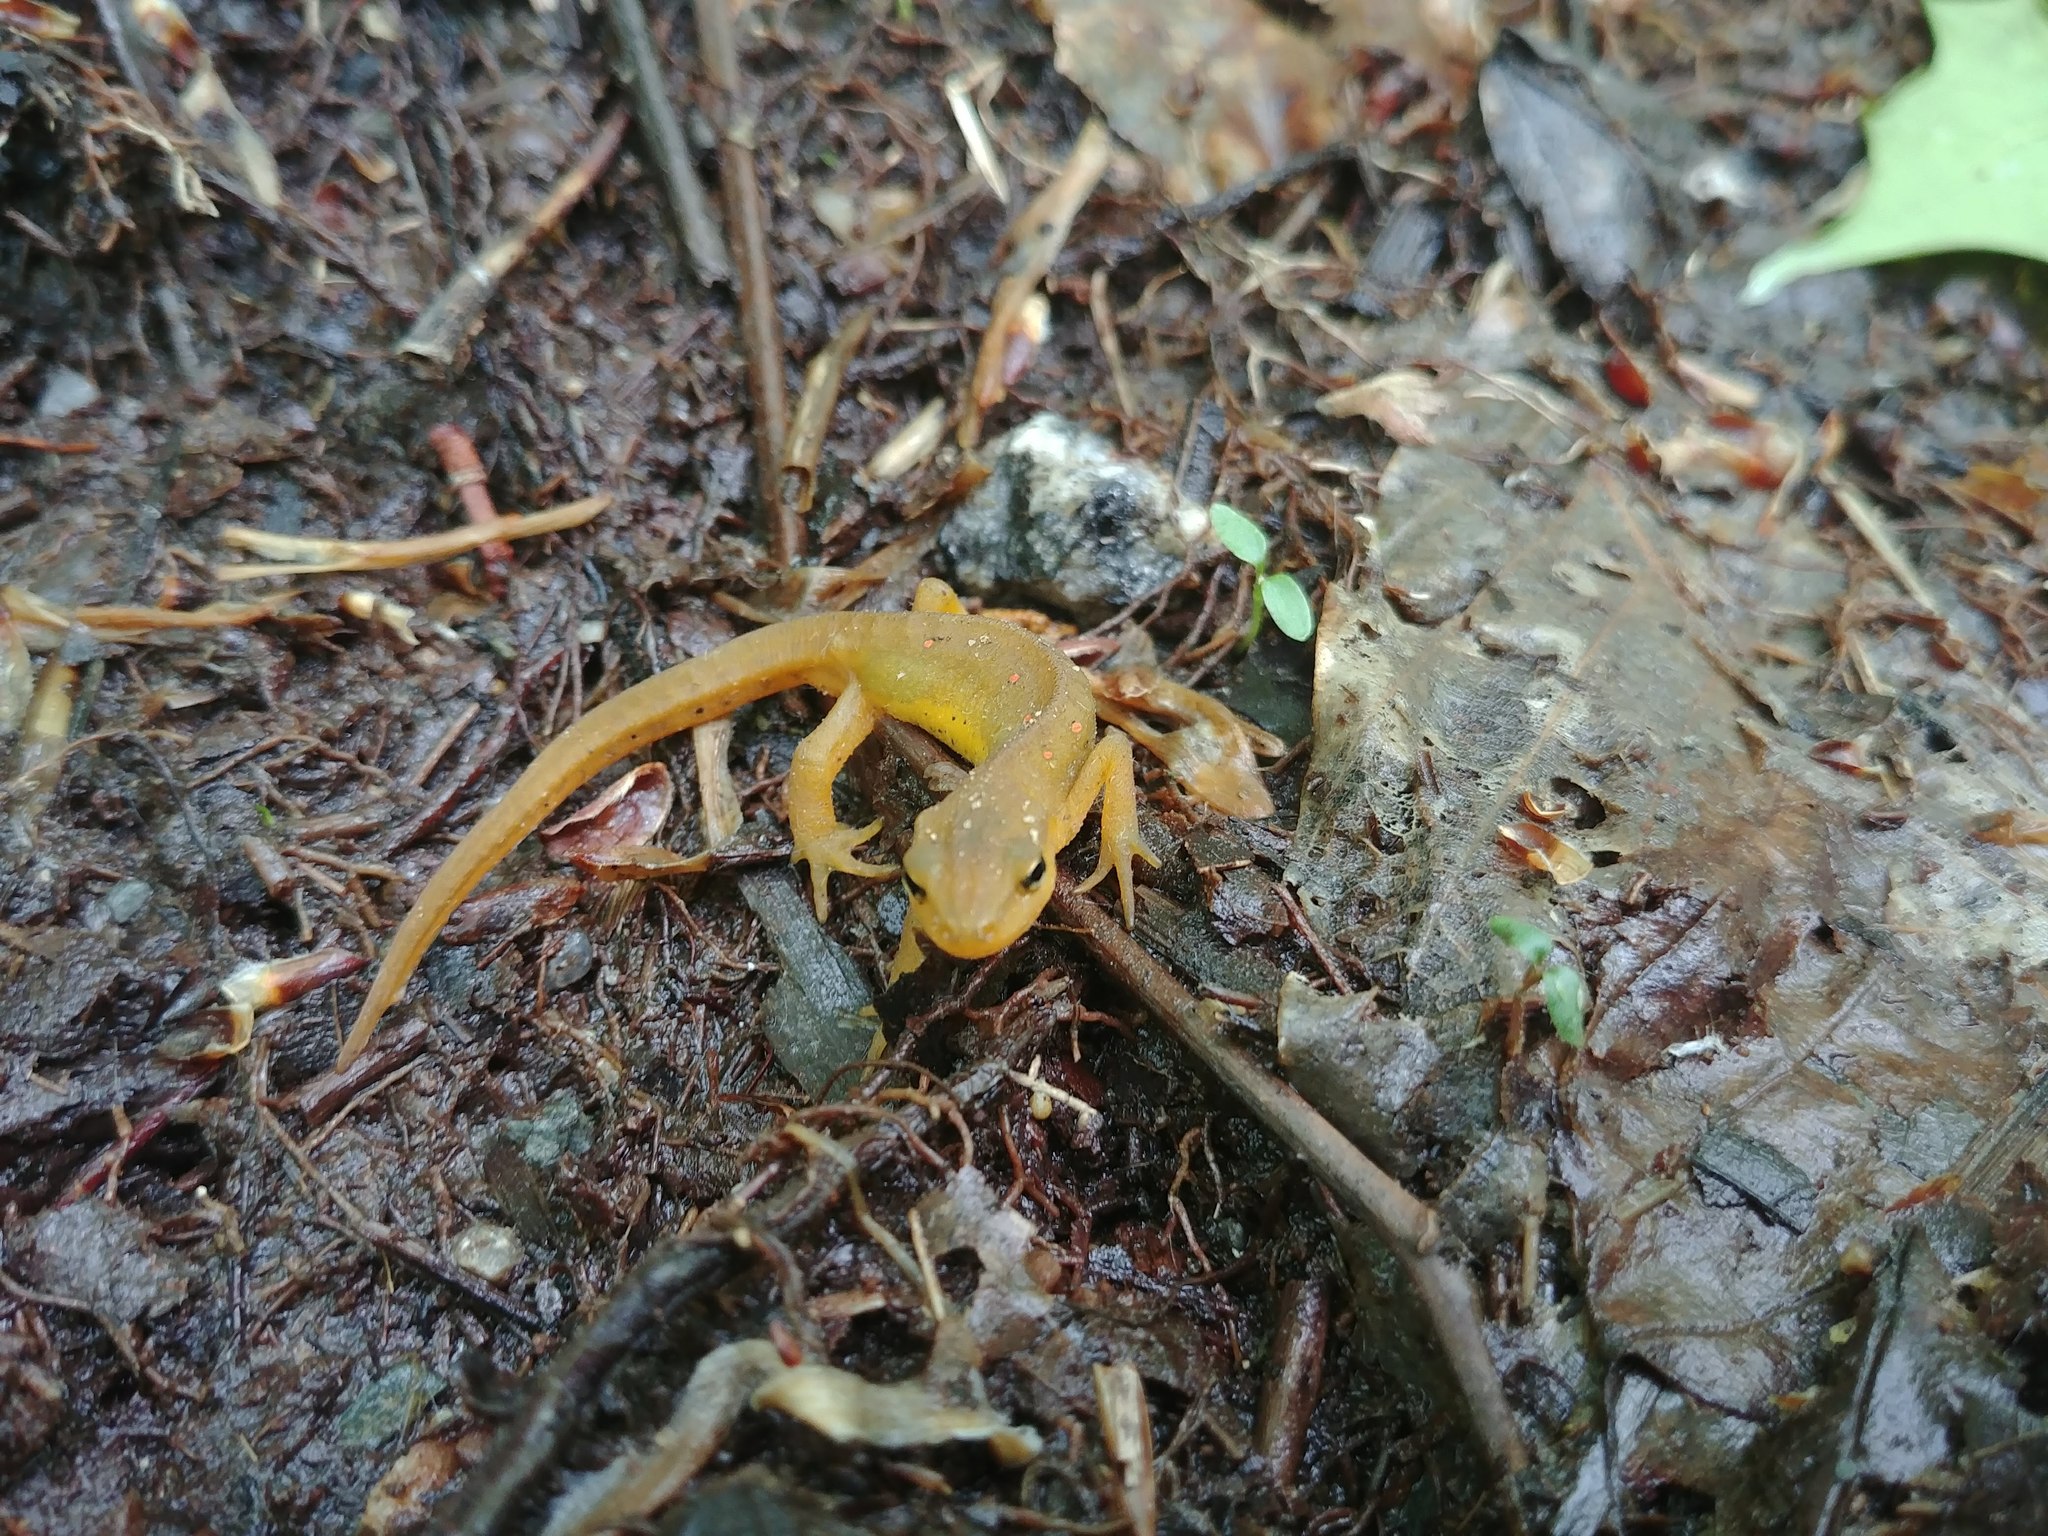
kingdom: Animalia
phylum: Chordata
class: Amphibia
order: Caudata
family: Salamandridae
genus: Notophthalmus
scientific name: Notophthalmus viridescens
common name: Eastern newt
